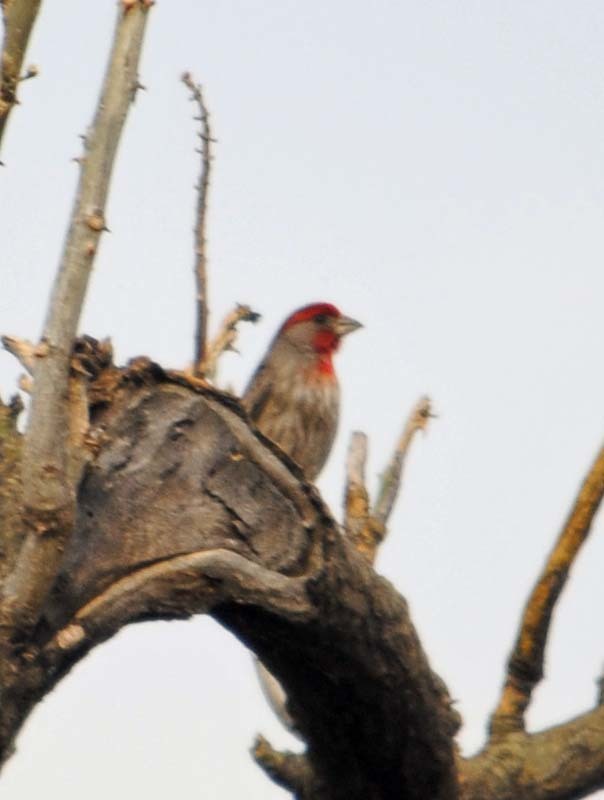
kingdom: Animalia
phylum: Chordata
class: Aves
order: Passeriformes
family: Fringillidae
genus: Haemorhous
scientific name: Haemorhous mexicanus
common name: House finch
